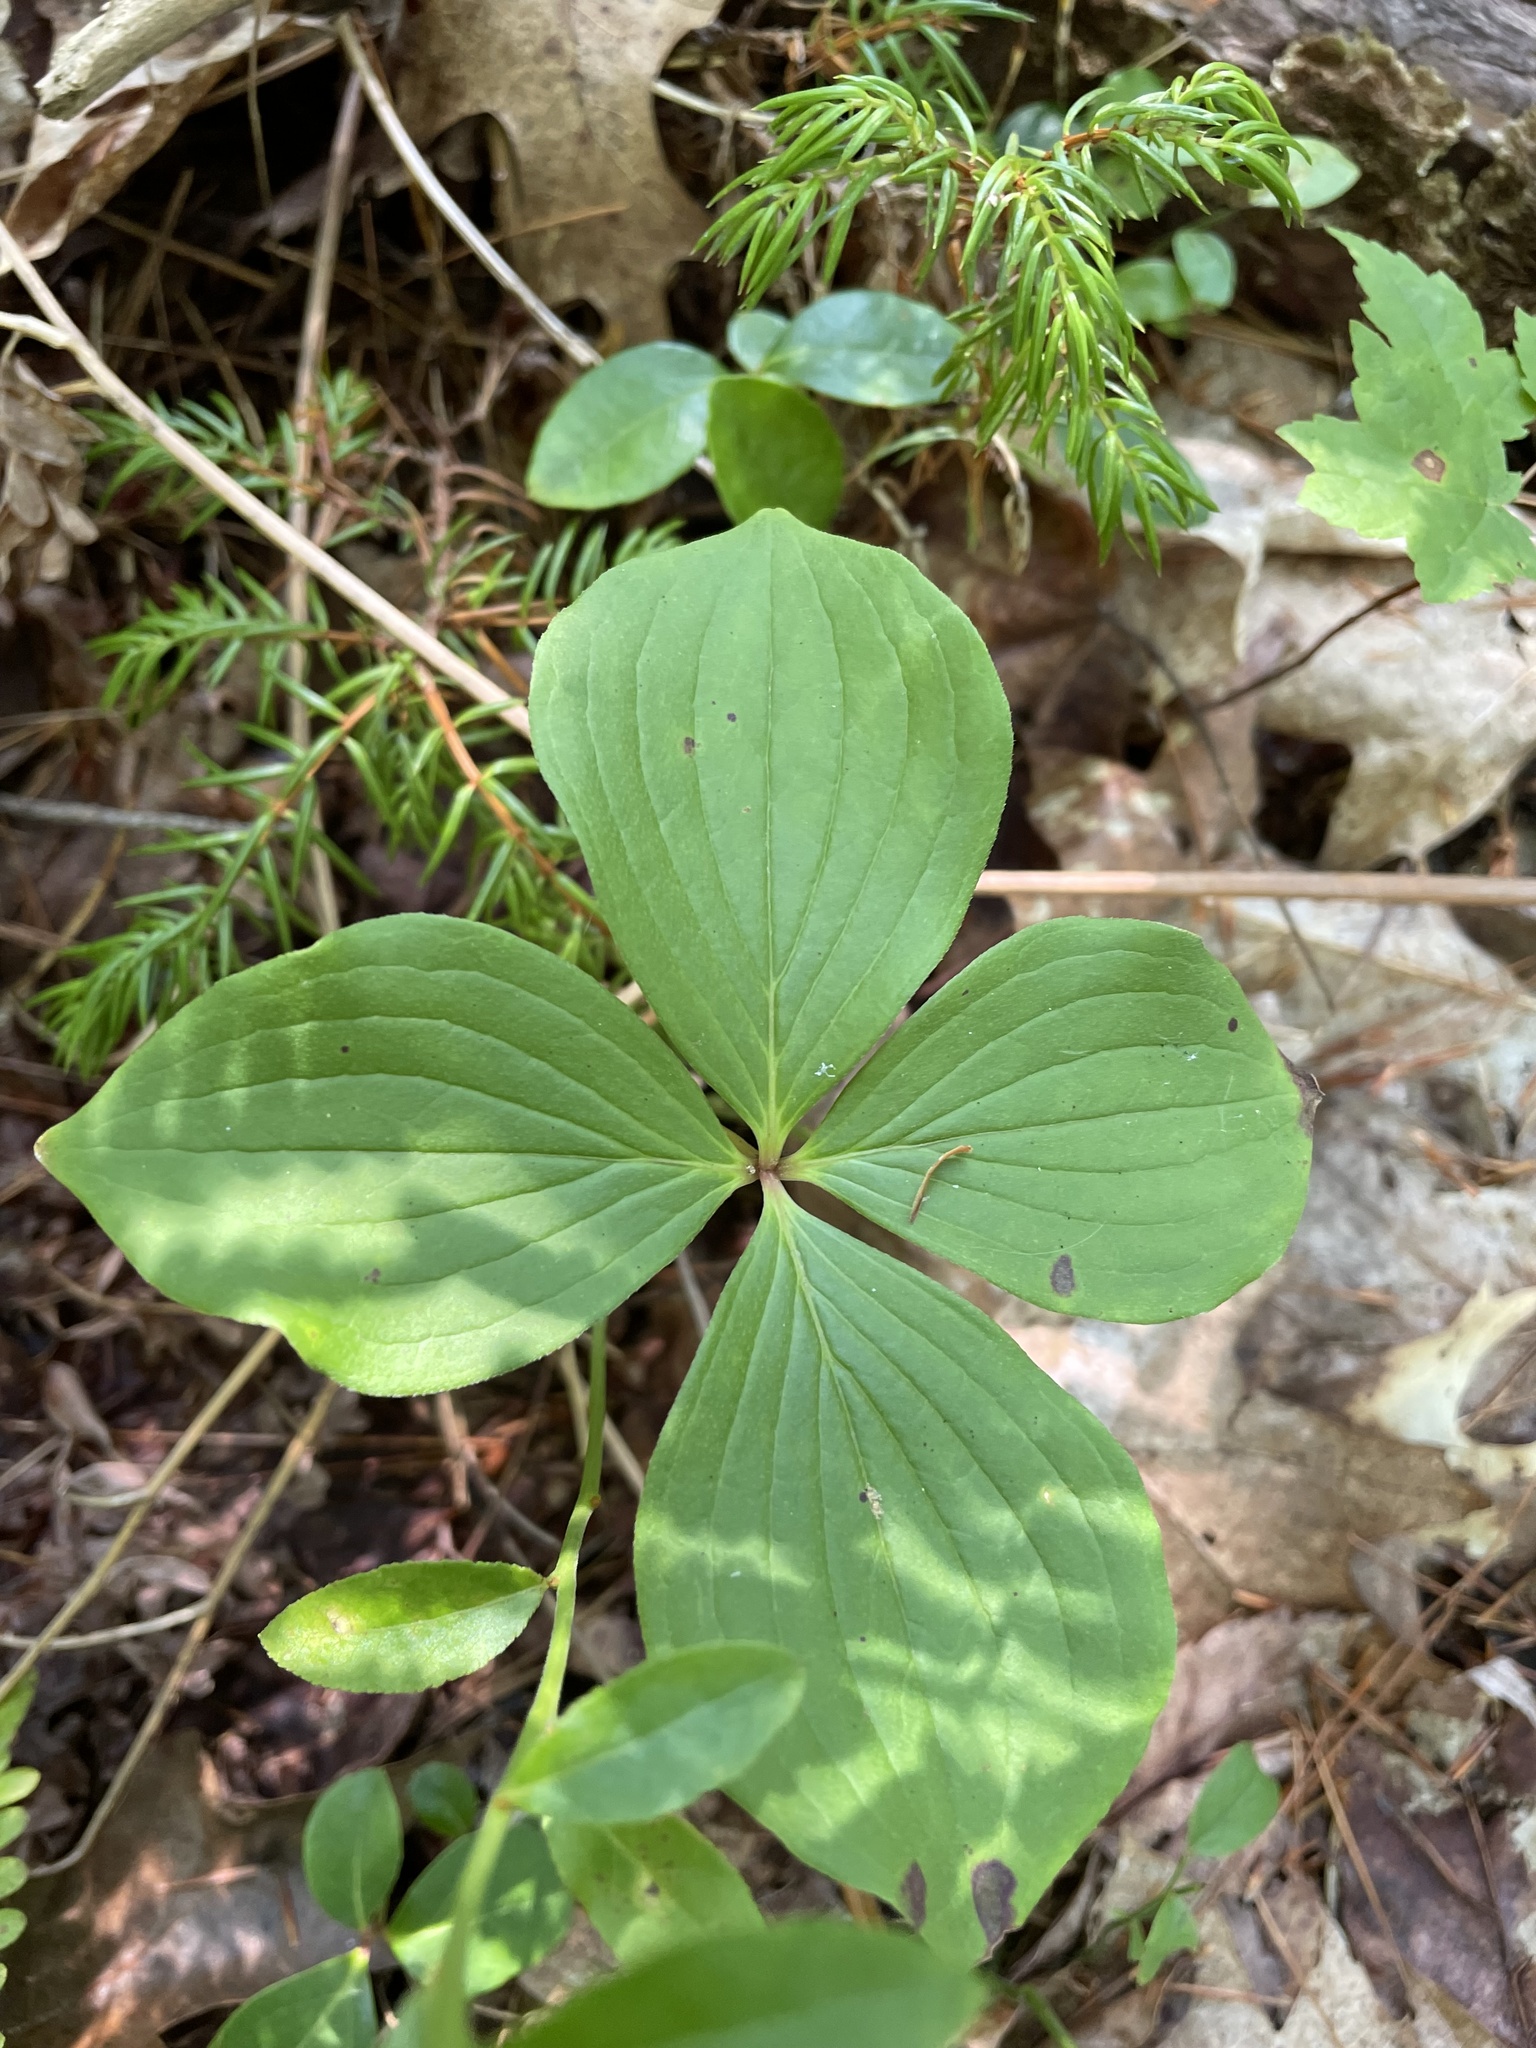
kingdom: Plantae
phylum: Tracheophyta
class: Magnoliopsida
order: Cornales
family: Cornaceae
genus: Cornus
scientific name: Cornus canadensis
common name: Creeping dogwood
